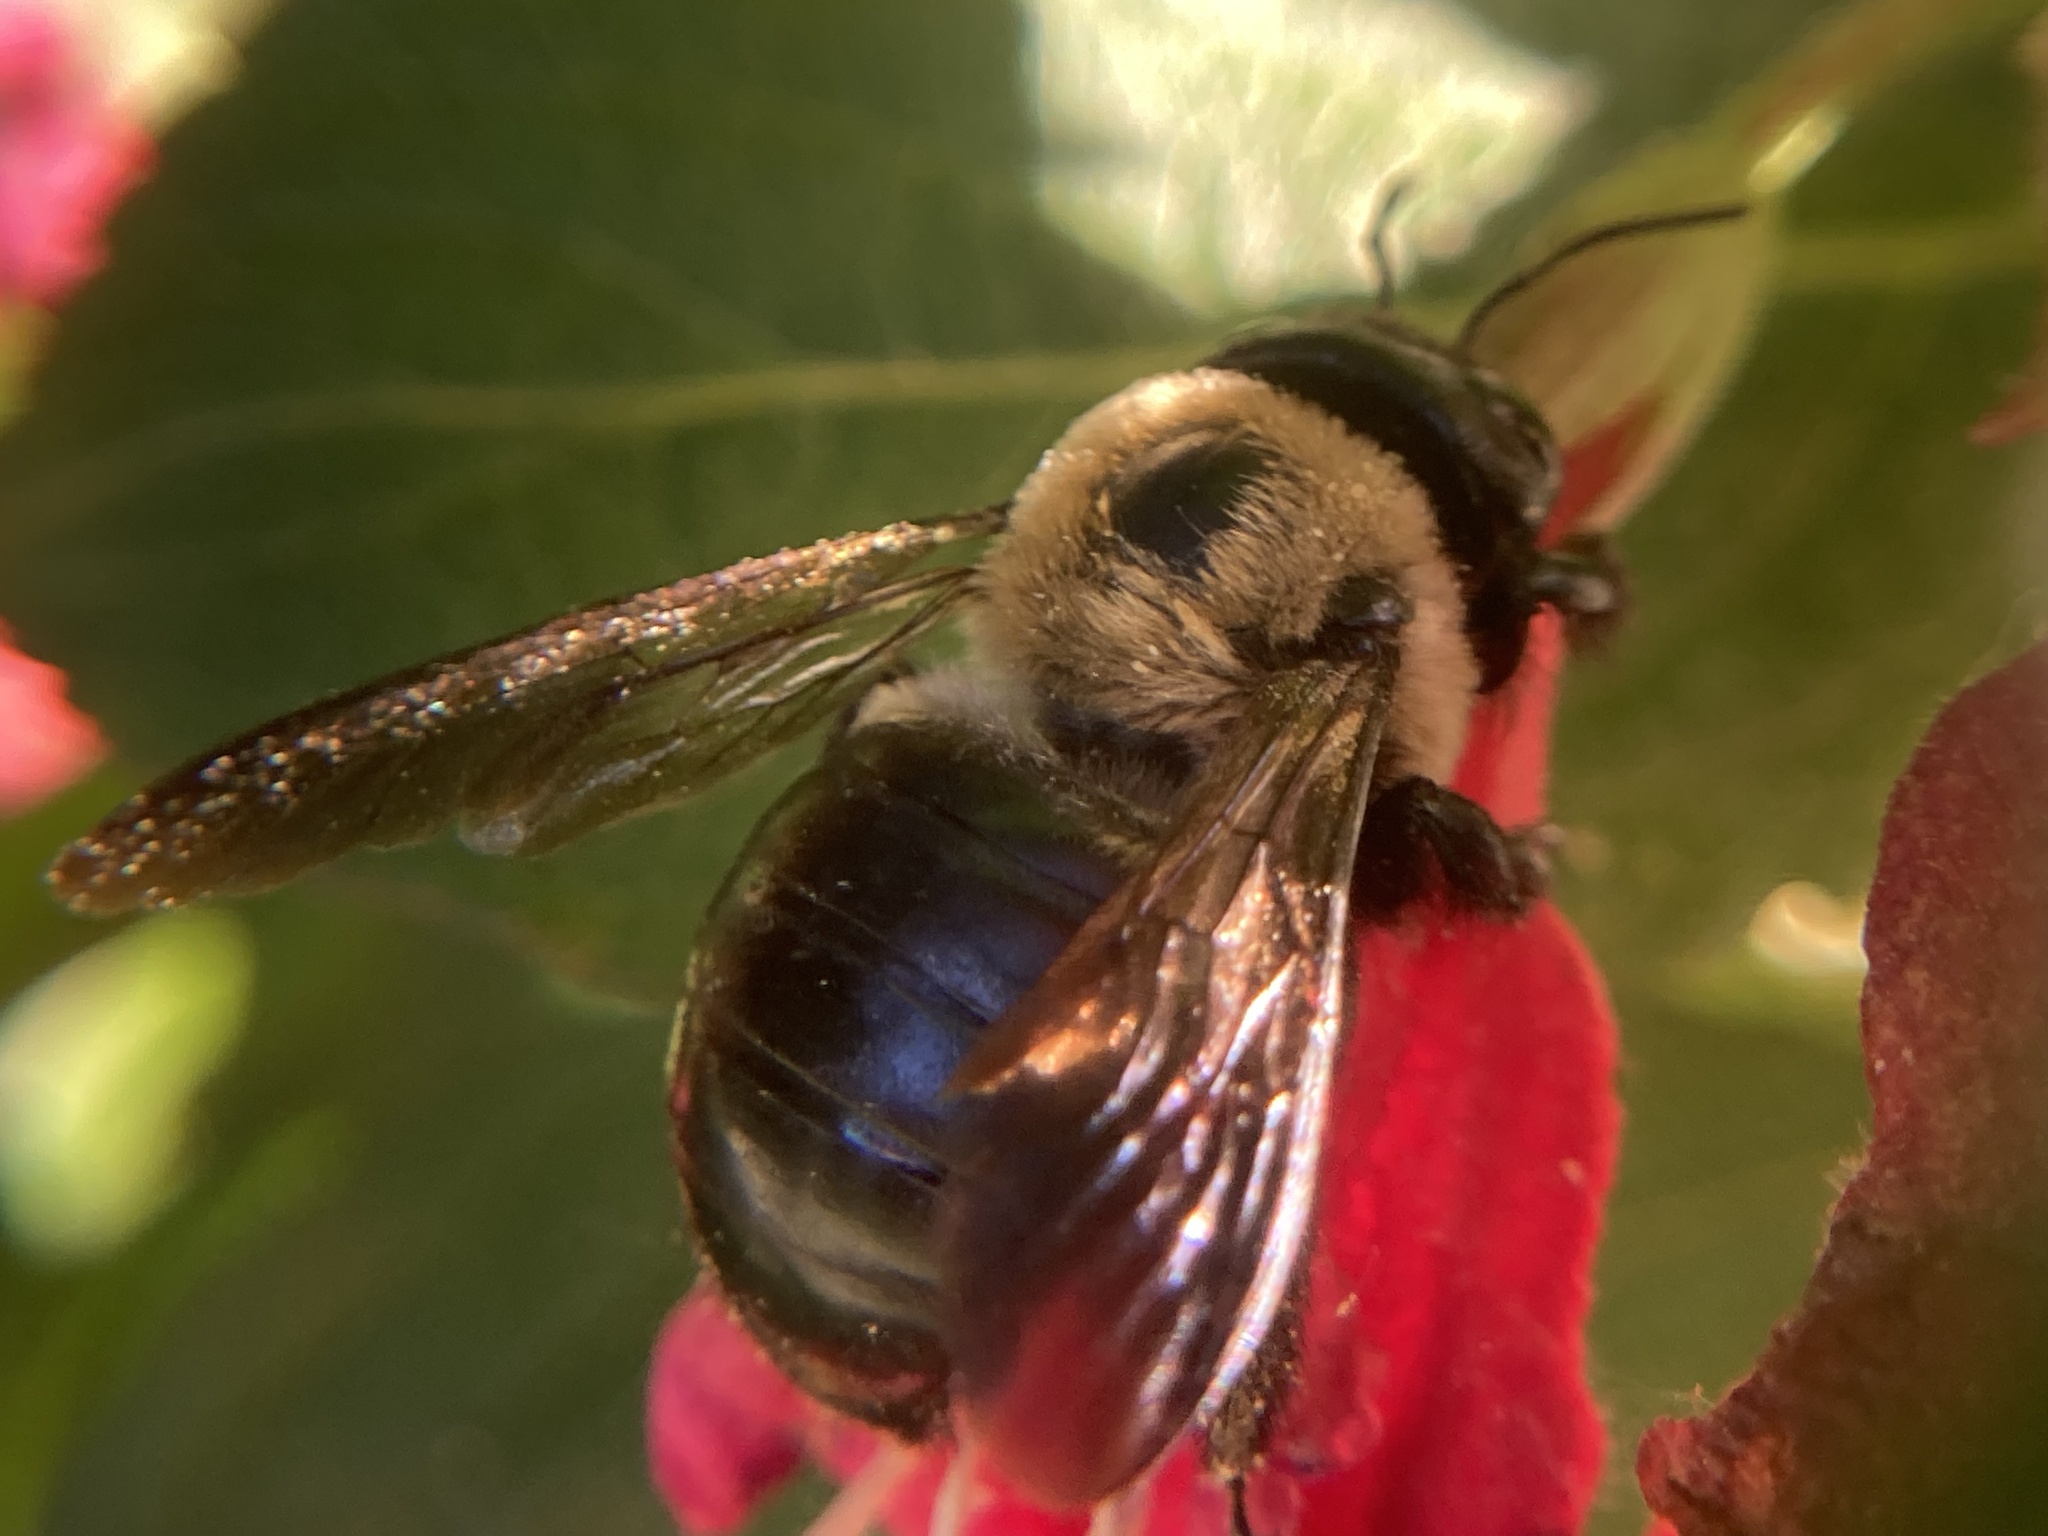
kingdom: Animalia
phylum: Arthropoda
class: Insecta
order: Hymenoptera
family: Apidae
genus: Xylocopa
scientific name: Xylocopa virginica
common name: Carpenter bee
